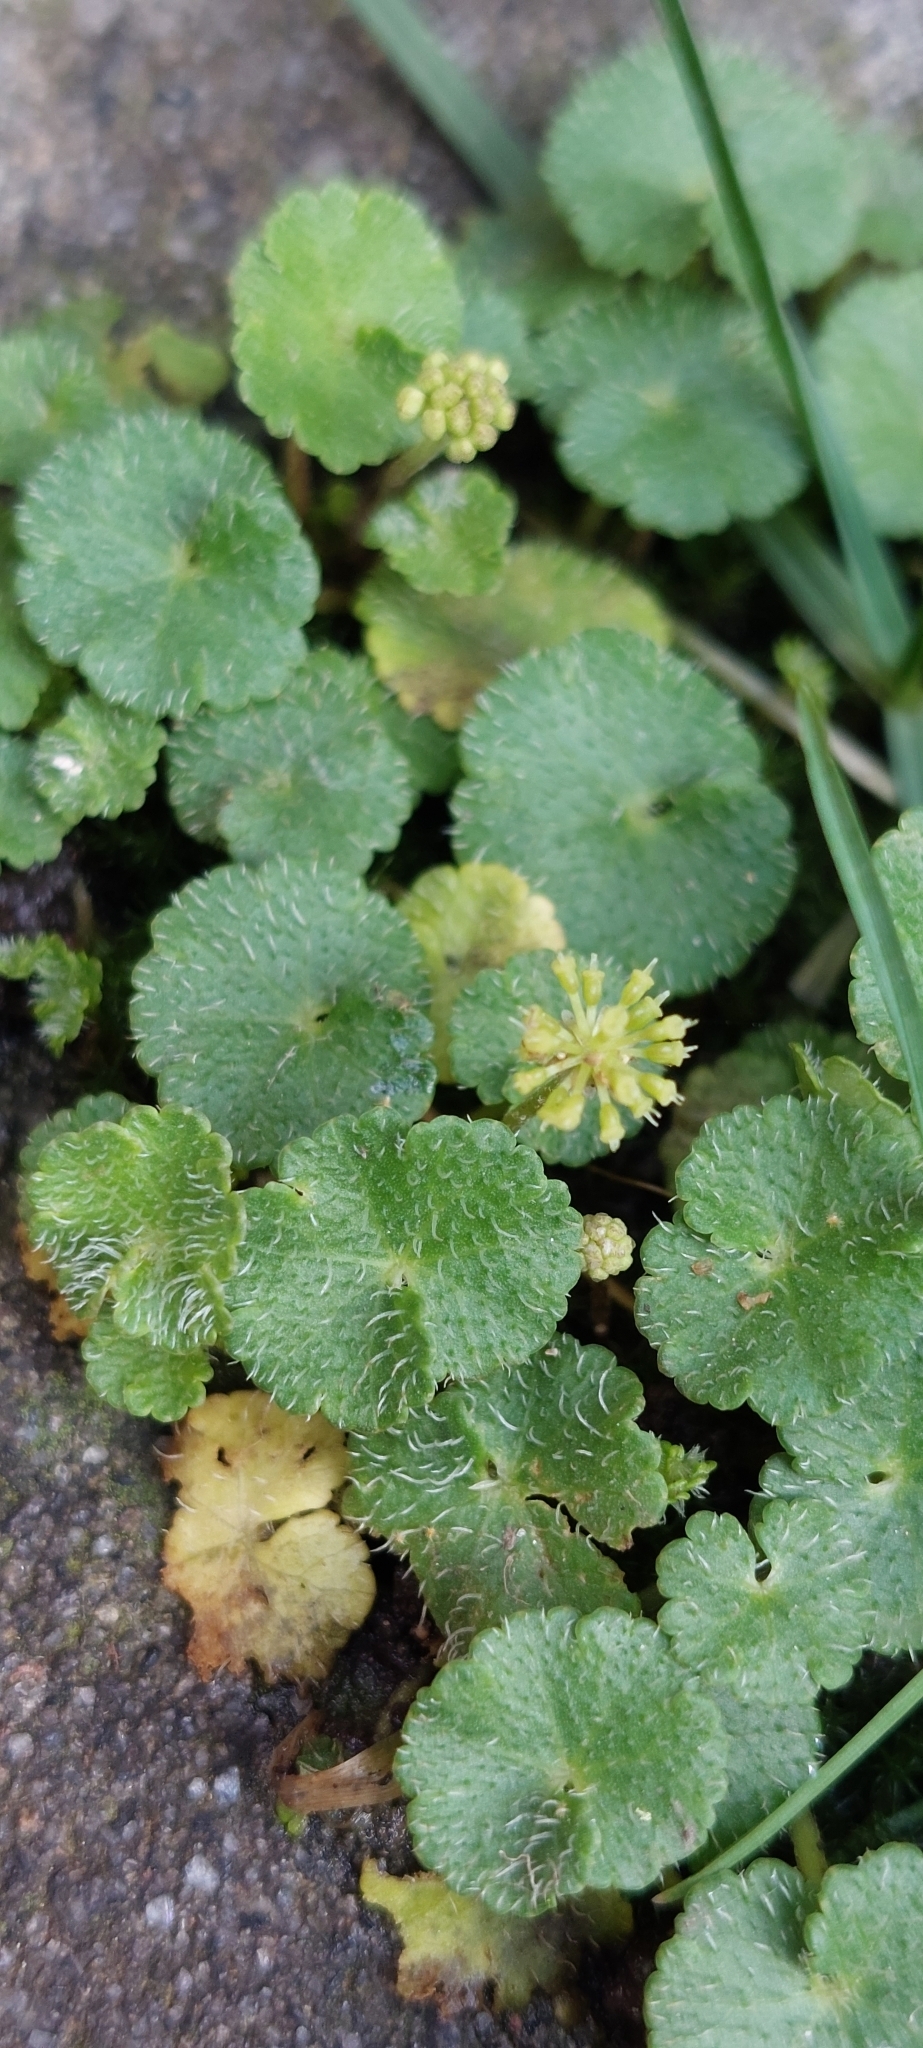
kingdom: Plantae
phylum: Tracheophyta
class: Magnoliopsida
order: Apiales
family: Araliaceae
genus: Hydrocotyle
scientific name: Hydrocotyle bonplandii
